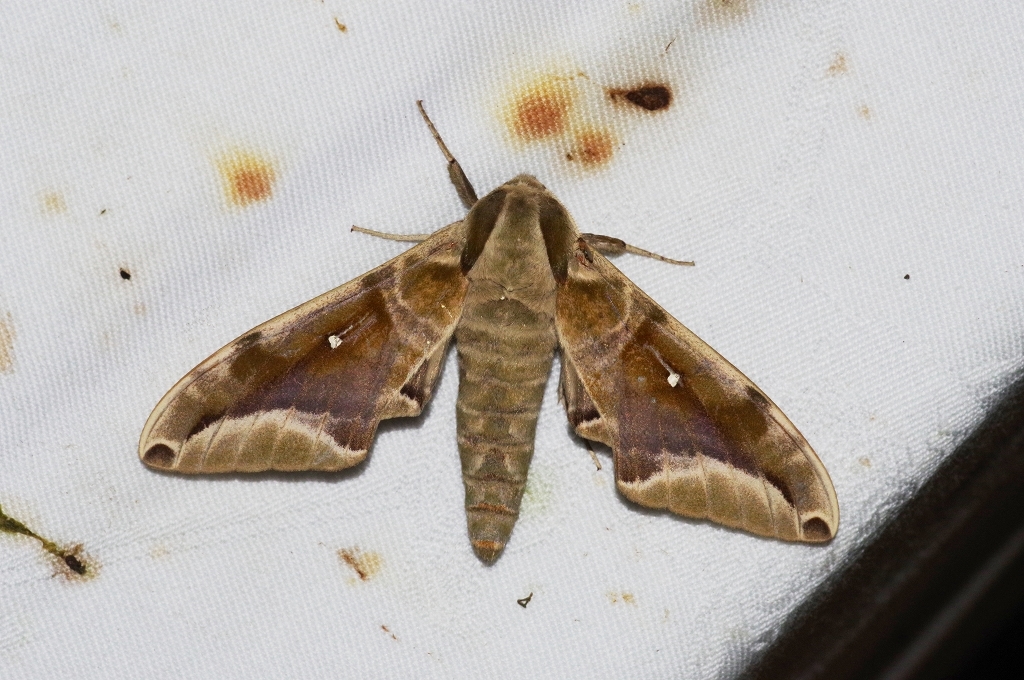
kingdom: Animalia
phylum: Arthropoda
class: Insecta
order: Lepidoptera
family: Sphingidae
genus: Parum
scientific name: Parum colligata
